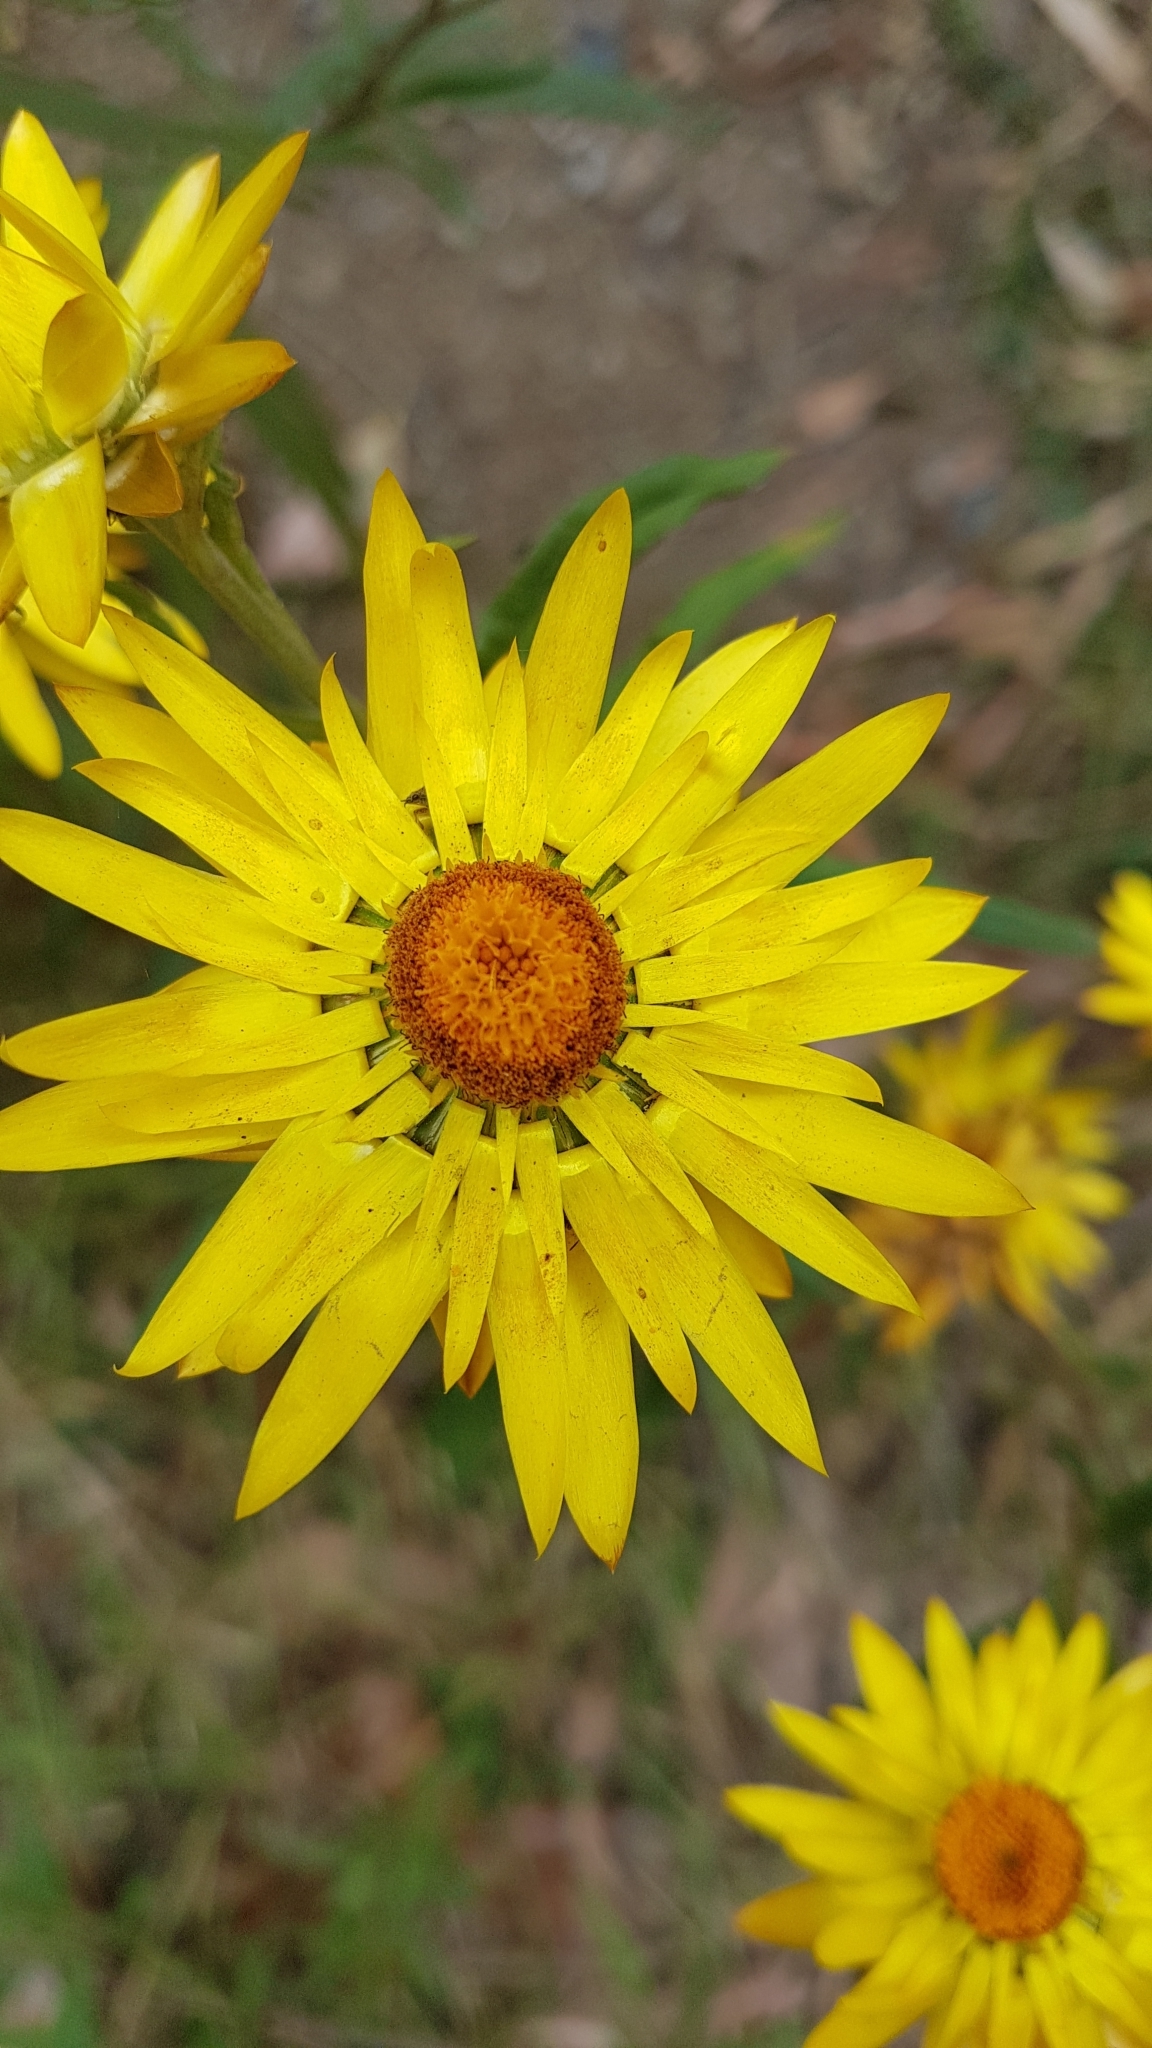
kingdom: Plantae
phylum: Tracheophyta
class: Magnoliopsida
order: Asterales
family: Asteraceae
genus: Xerochrysum
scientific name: Xerochrysum bracteatum
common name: Bracted strawflower
